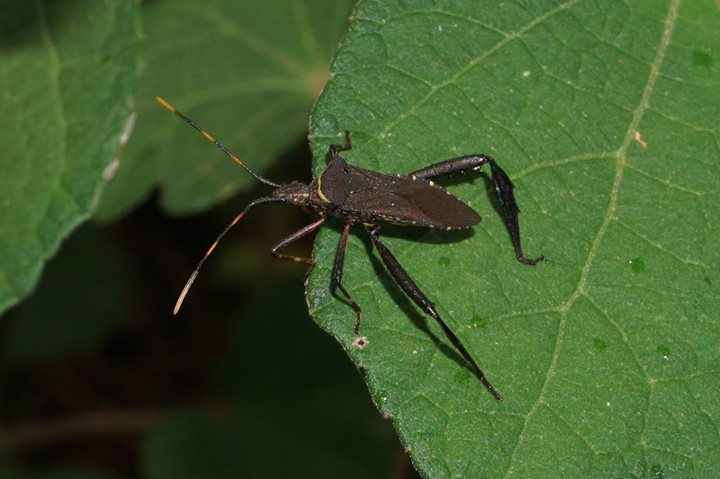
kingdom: Animalia
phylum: Arthropoda
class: Insecta
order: Hemiptera
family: Coreidae
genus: Leptoglossus
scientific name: Leptoglossus gonagra
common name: Citron bug
